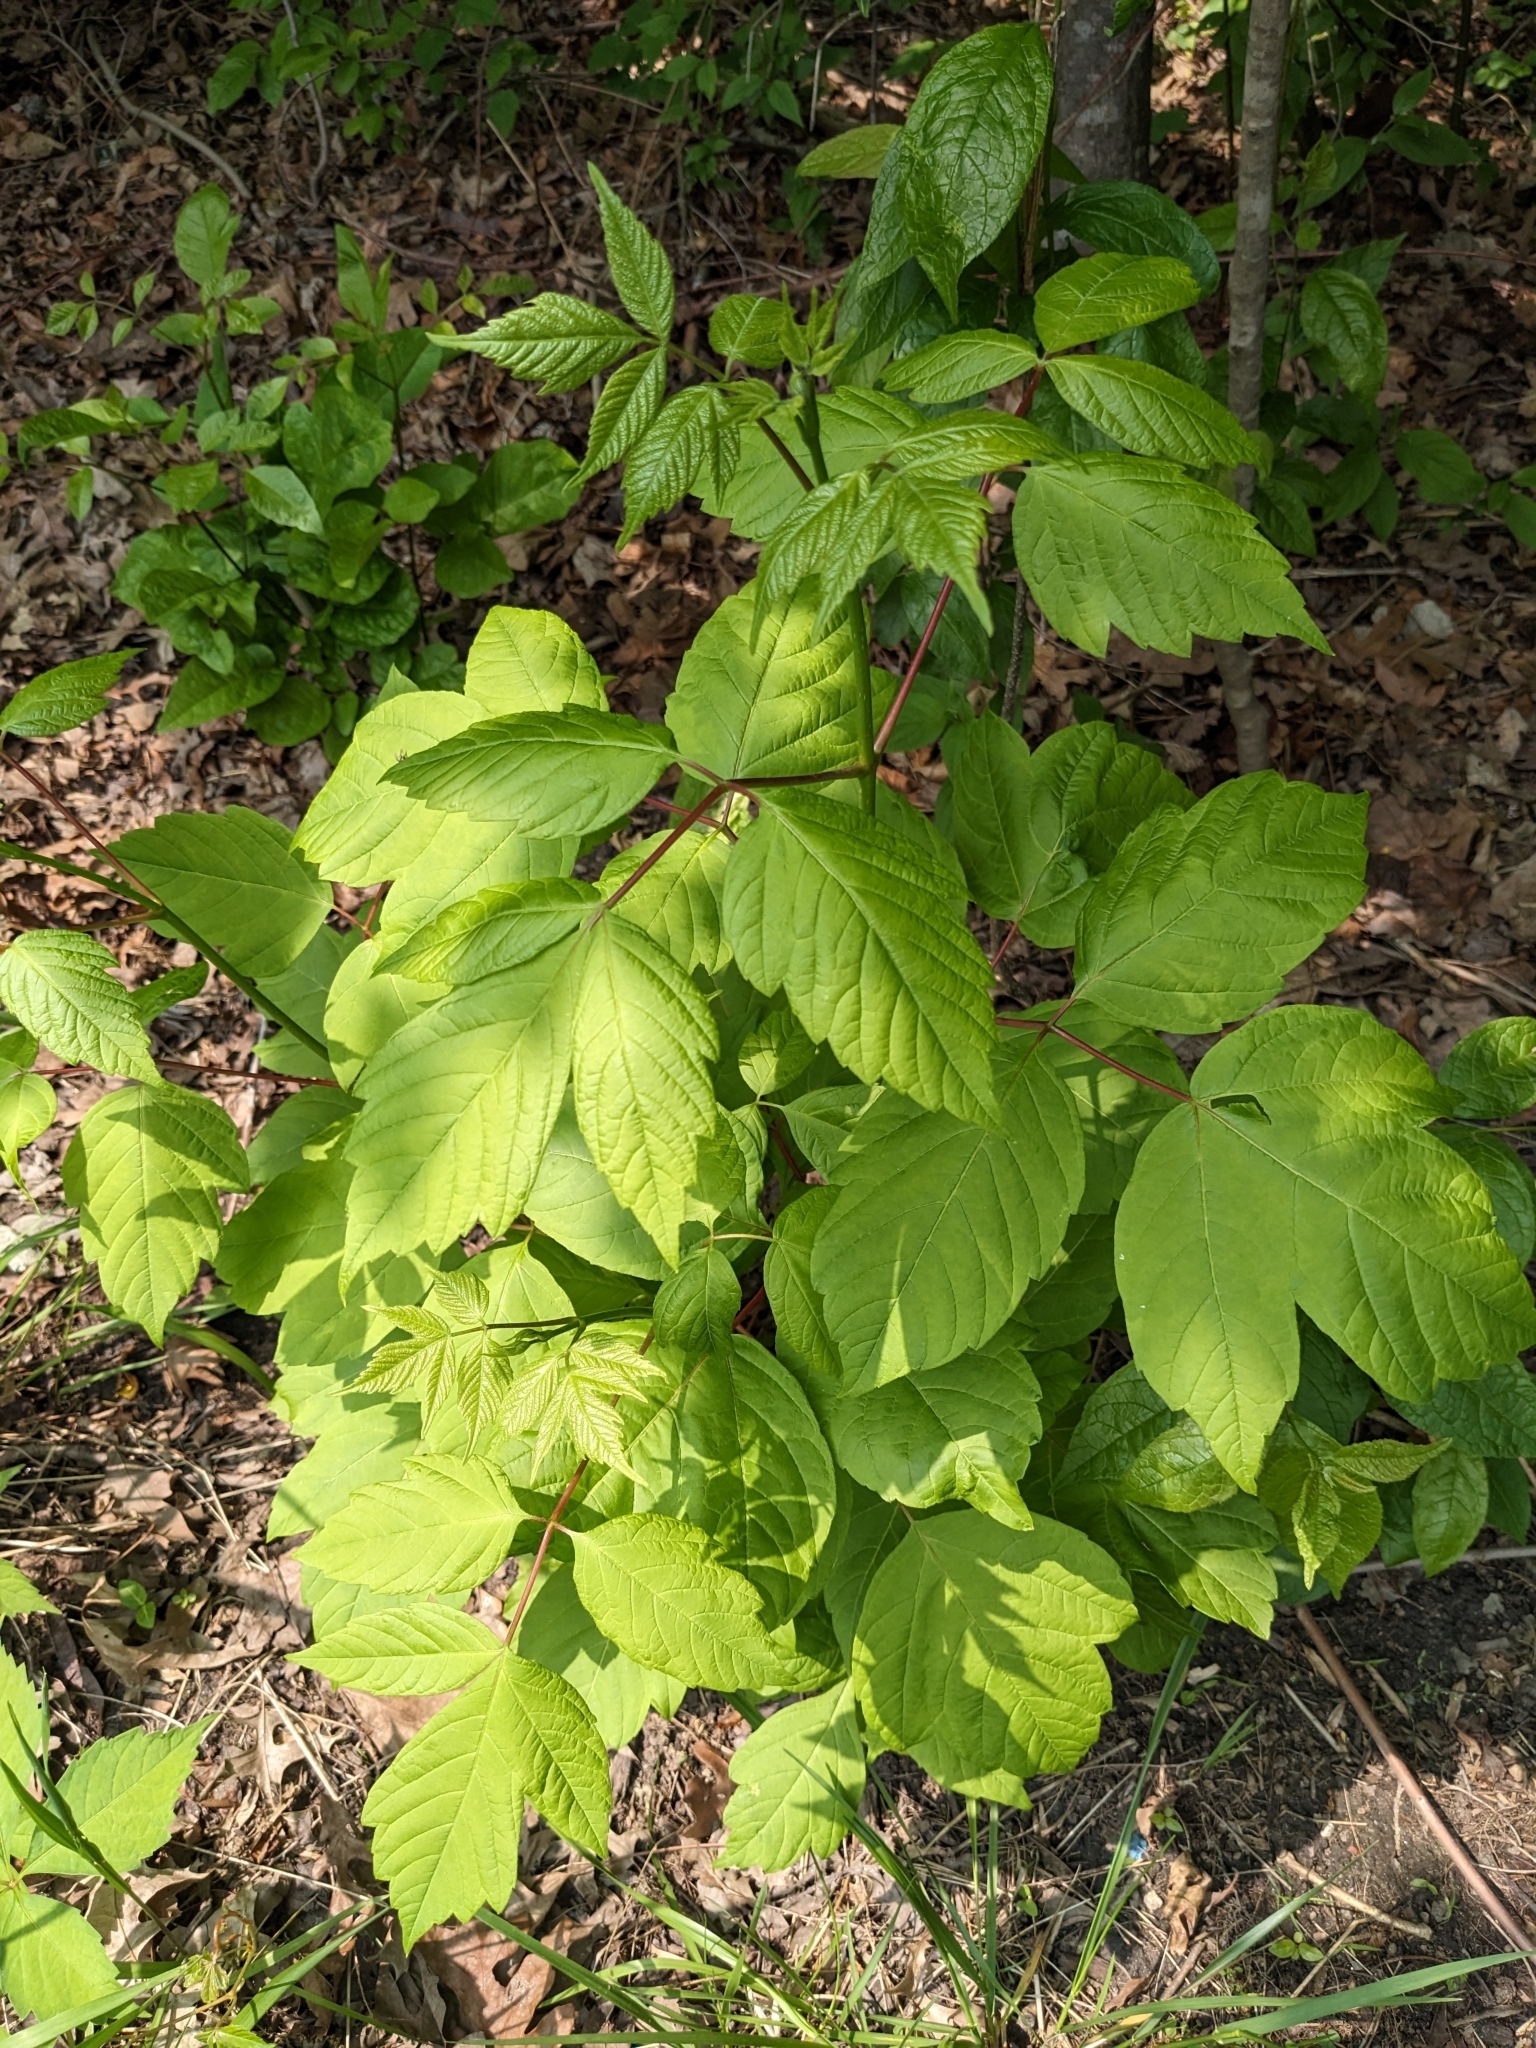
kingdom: Plantae
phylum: Tracheophyta
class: Magnoliopsida
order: Sapindales
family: Sapindaceae
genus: Acer
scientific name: Acer negundo
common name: Ashleaf maple
